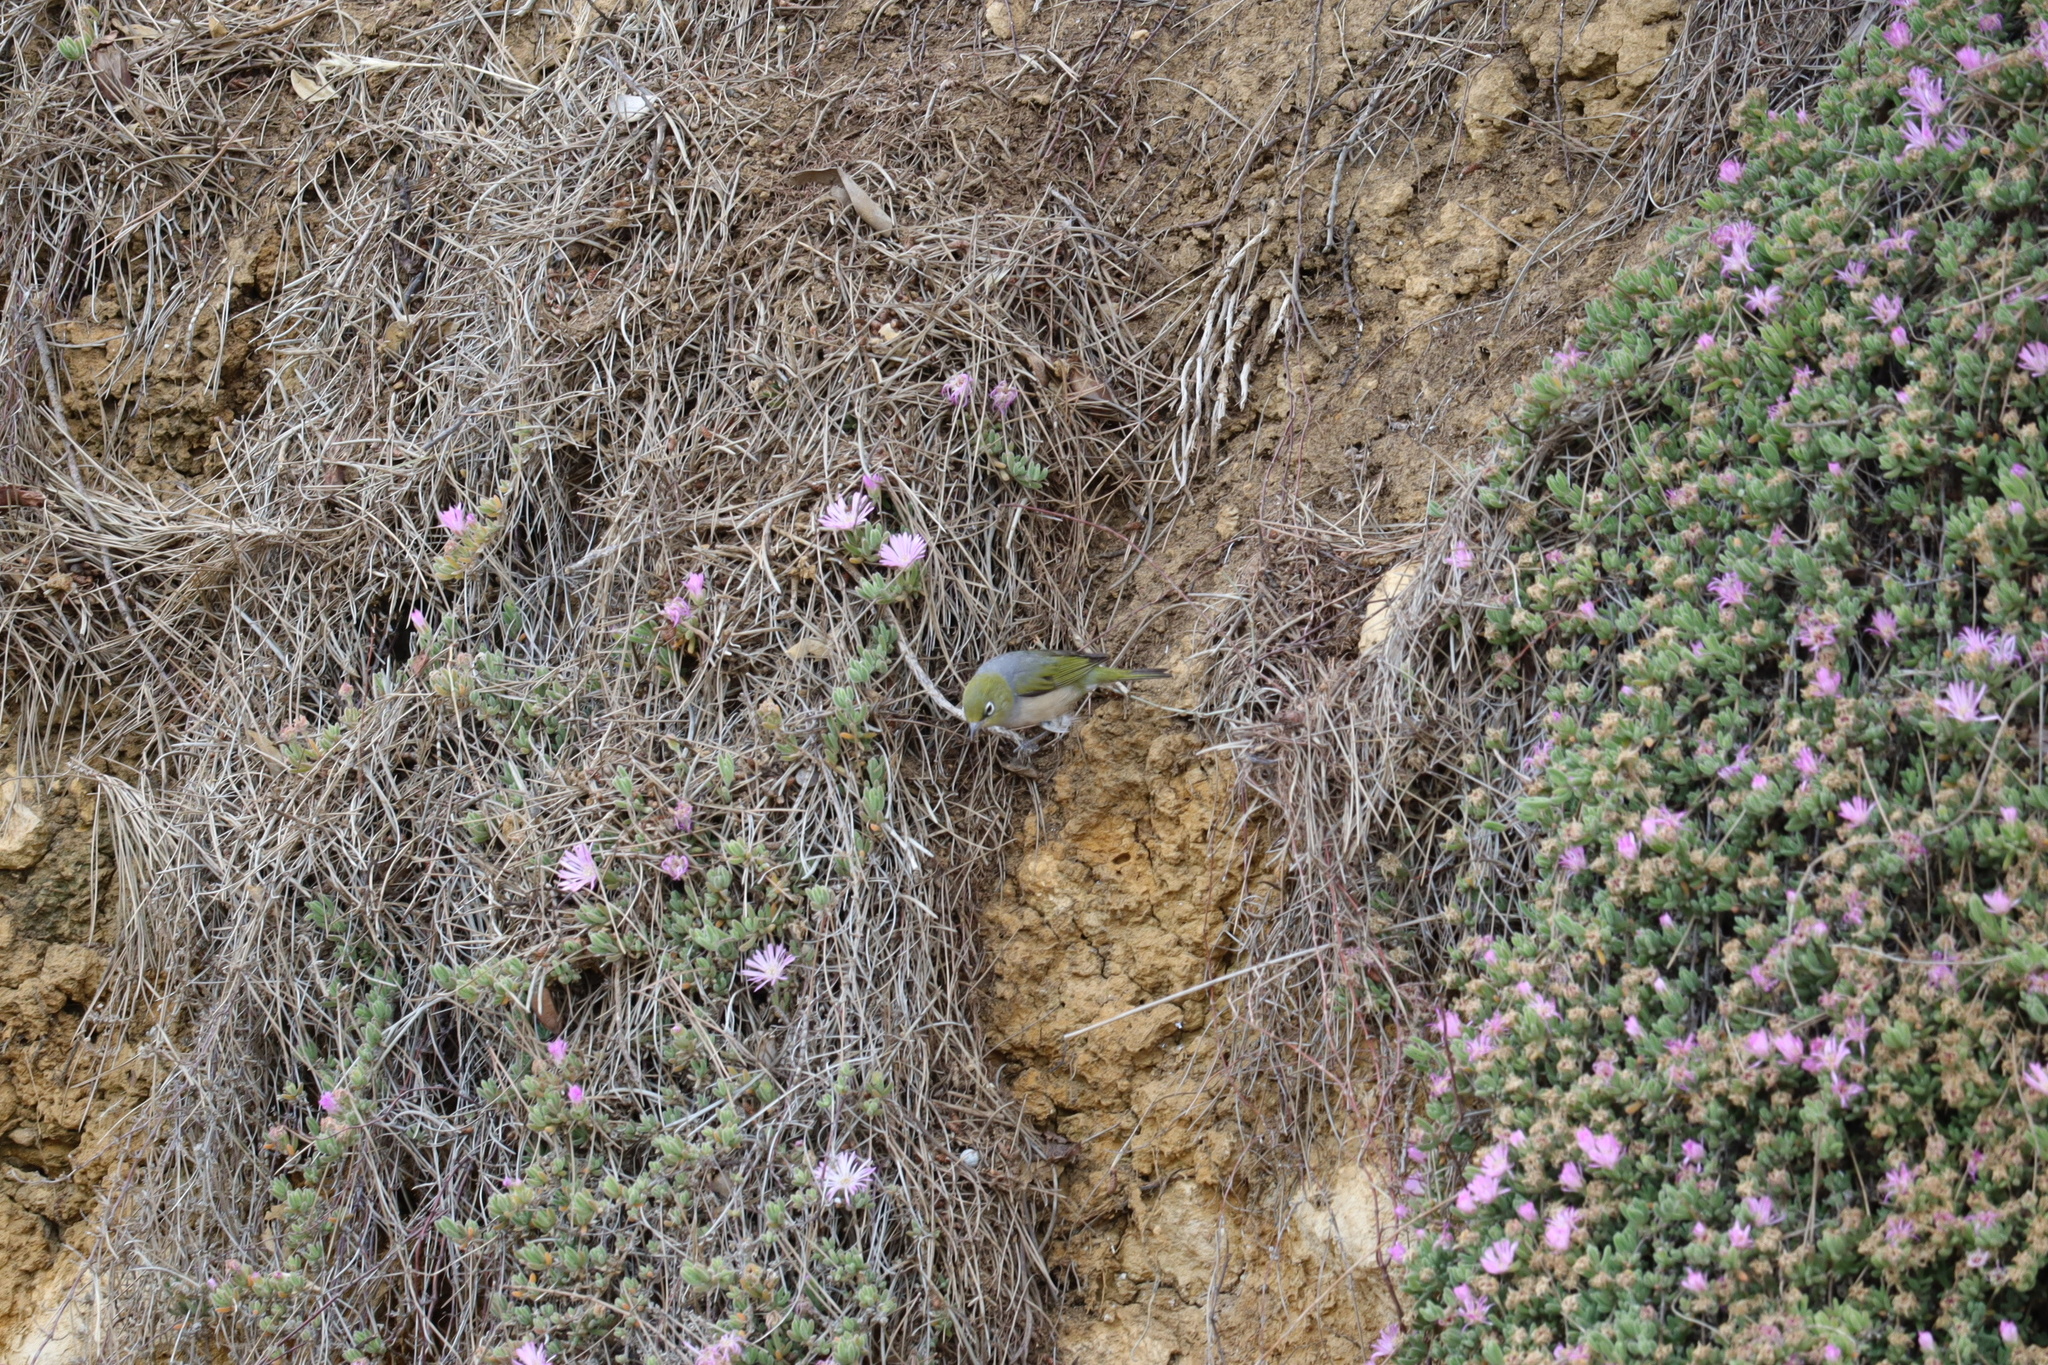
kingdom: Animalia
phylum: Chordata
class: Aves
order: Passeriformes
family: Zosteropidae
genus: Zosterops
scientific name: Zosterops lateralis
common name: Silvereye
